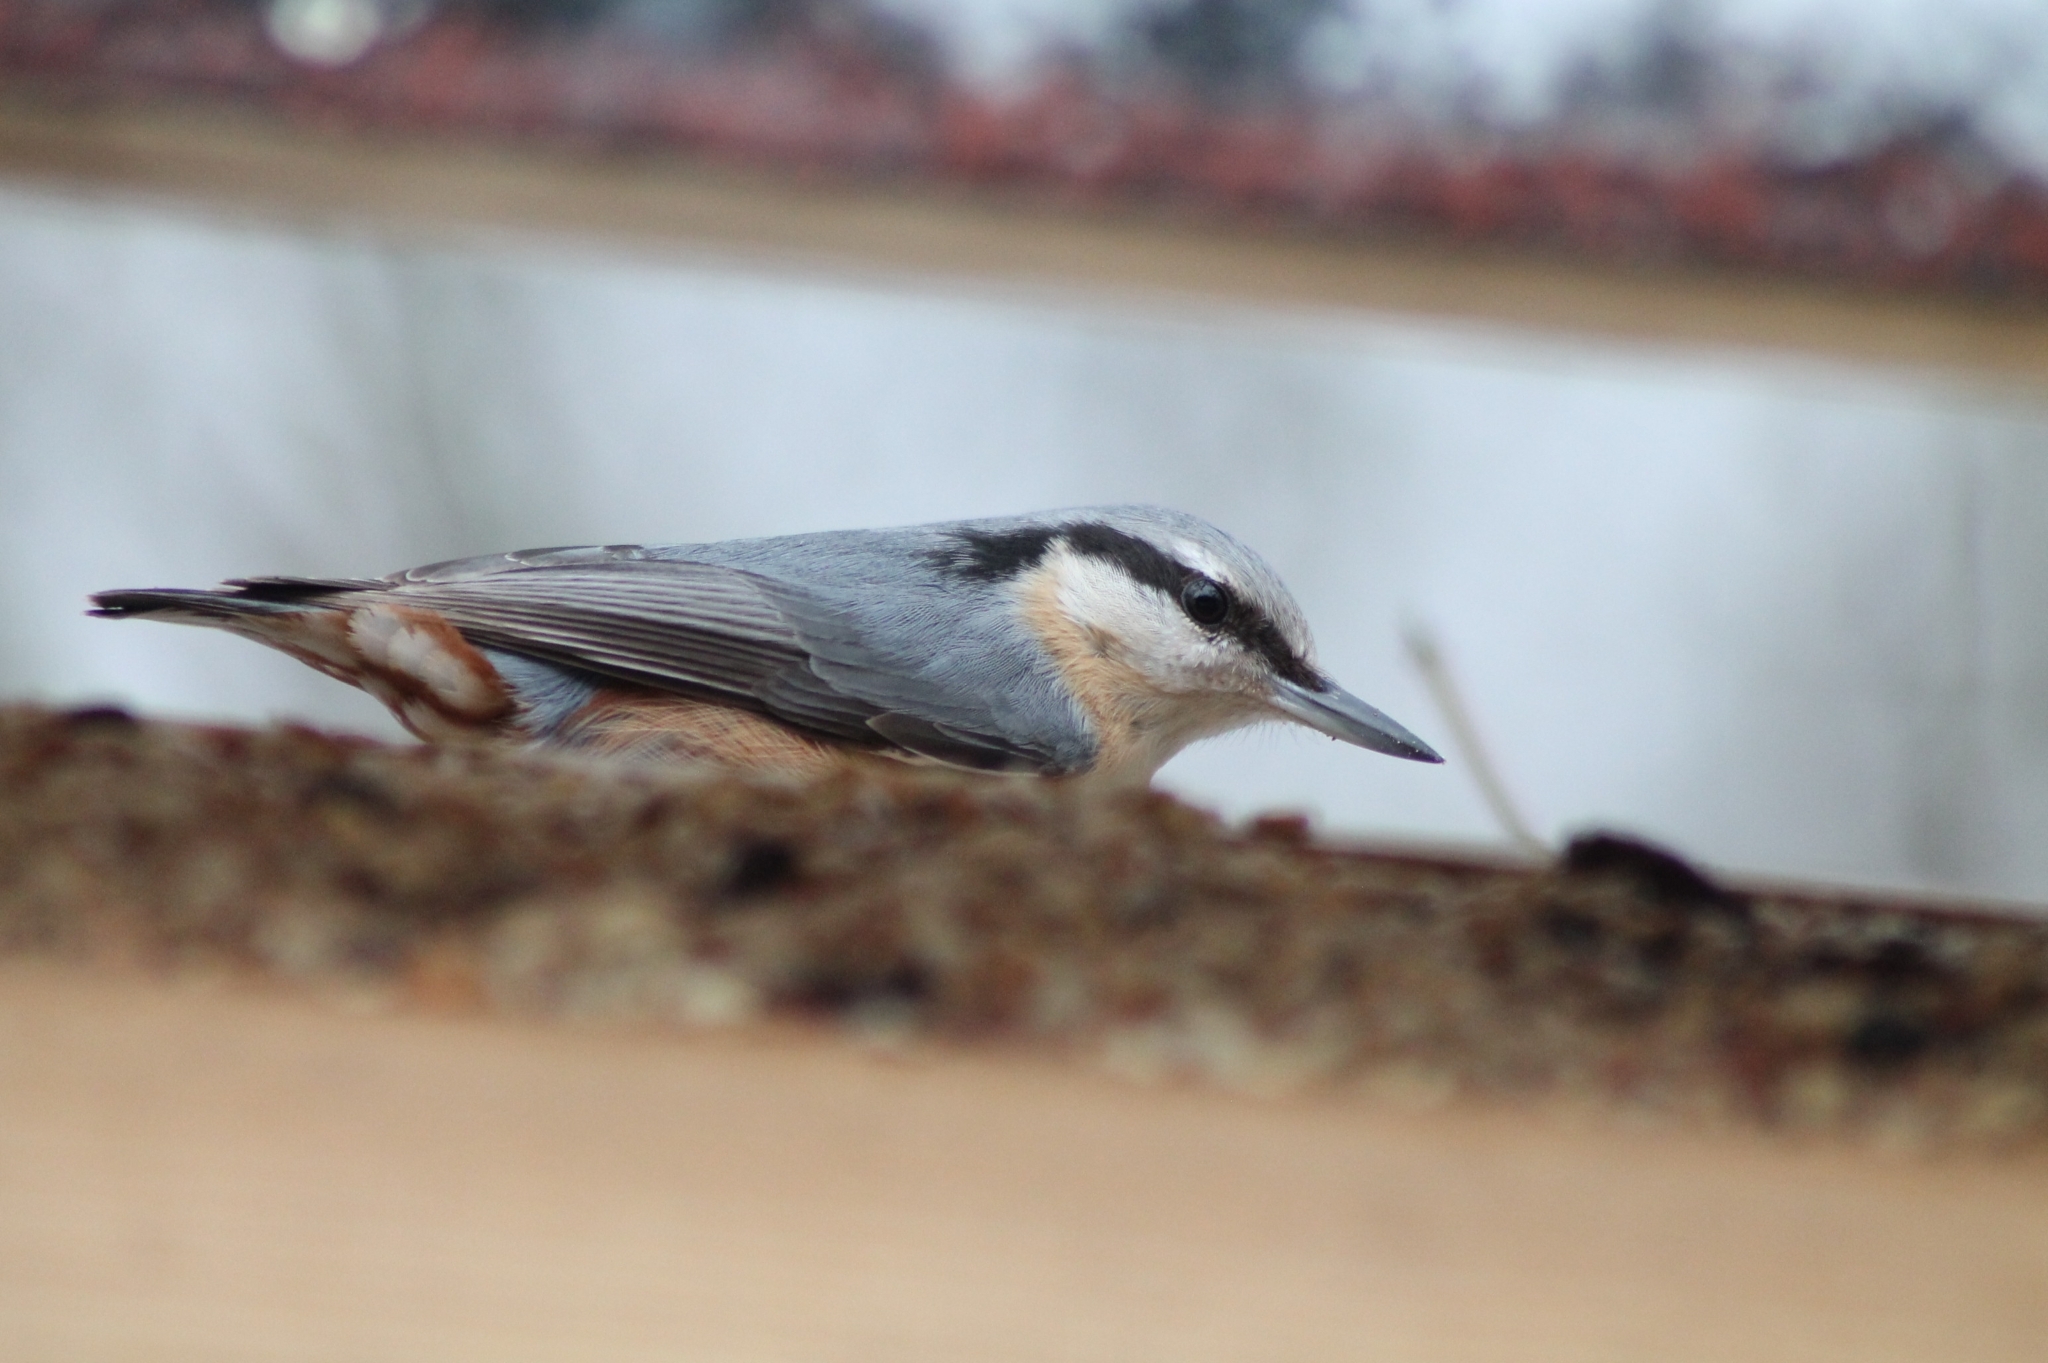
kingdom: Animalia
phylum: Chordata
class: Aves
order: Passeriformes
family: Sittidae
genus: Sitta
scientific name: Sitta europaea
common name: Eurasian nuthatch
